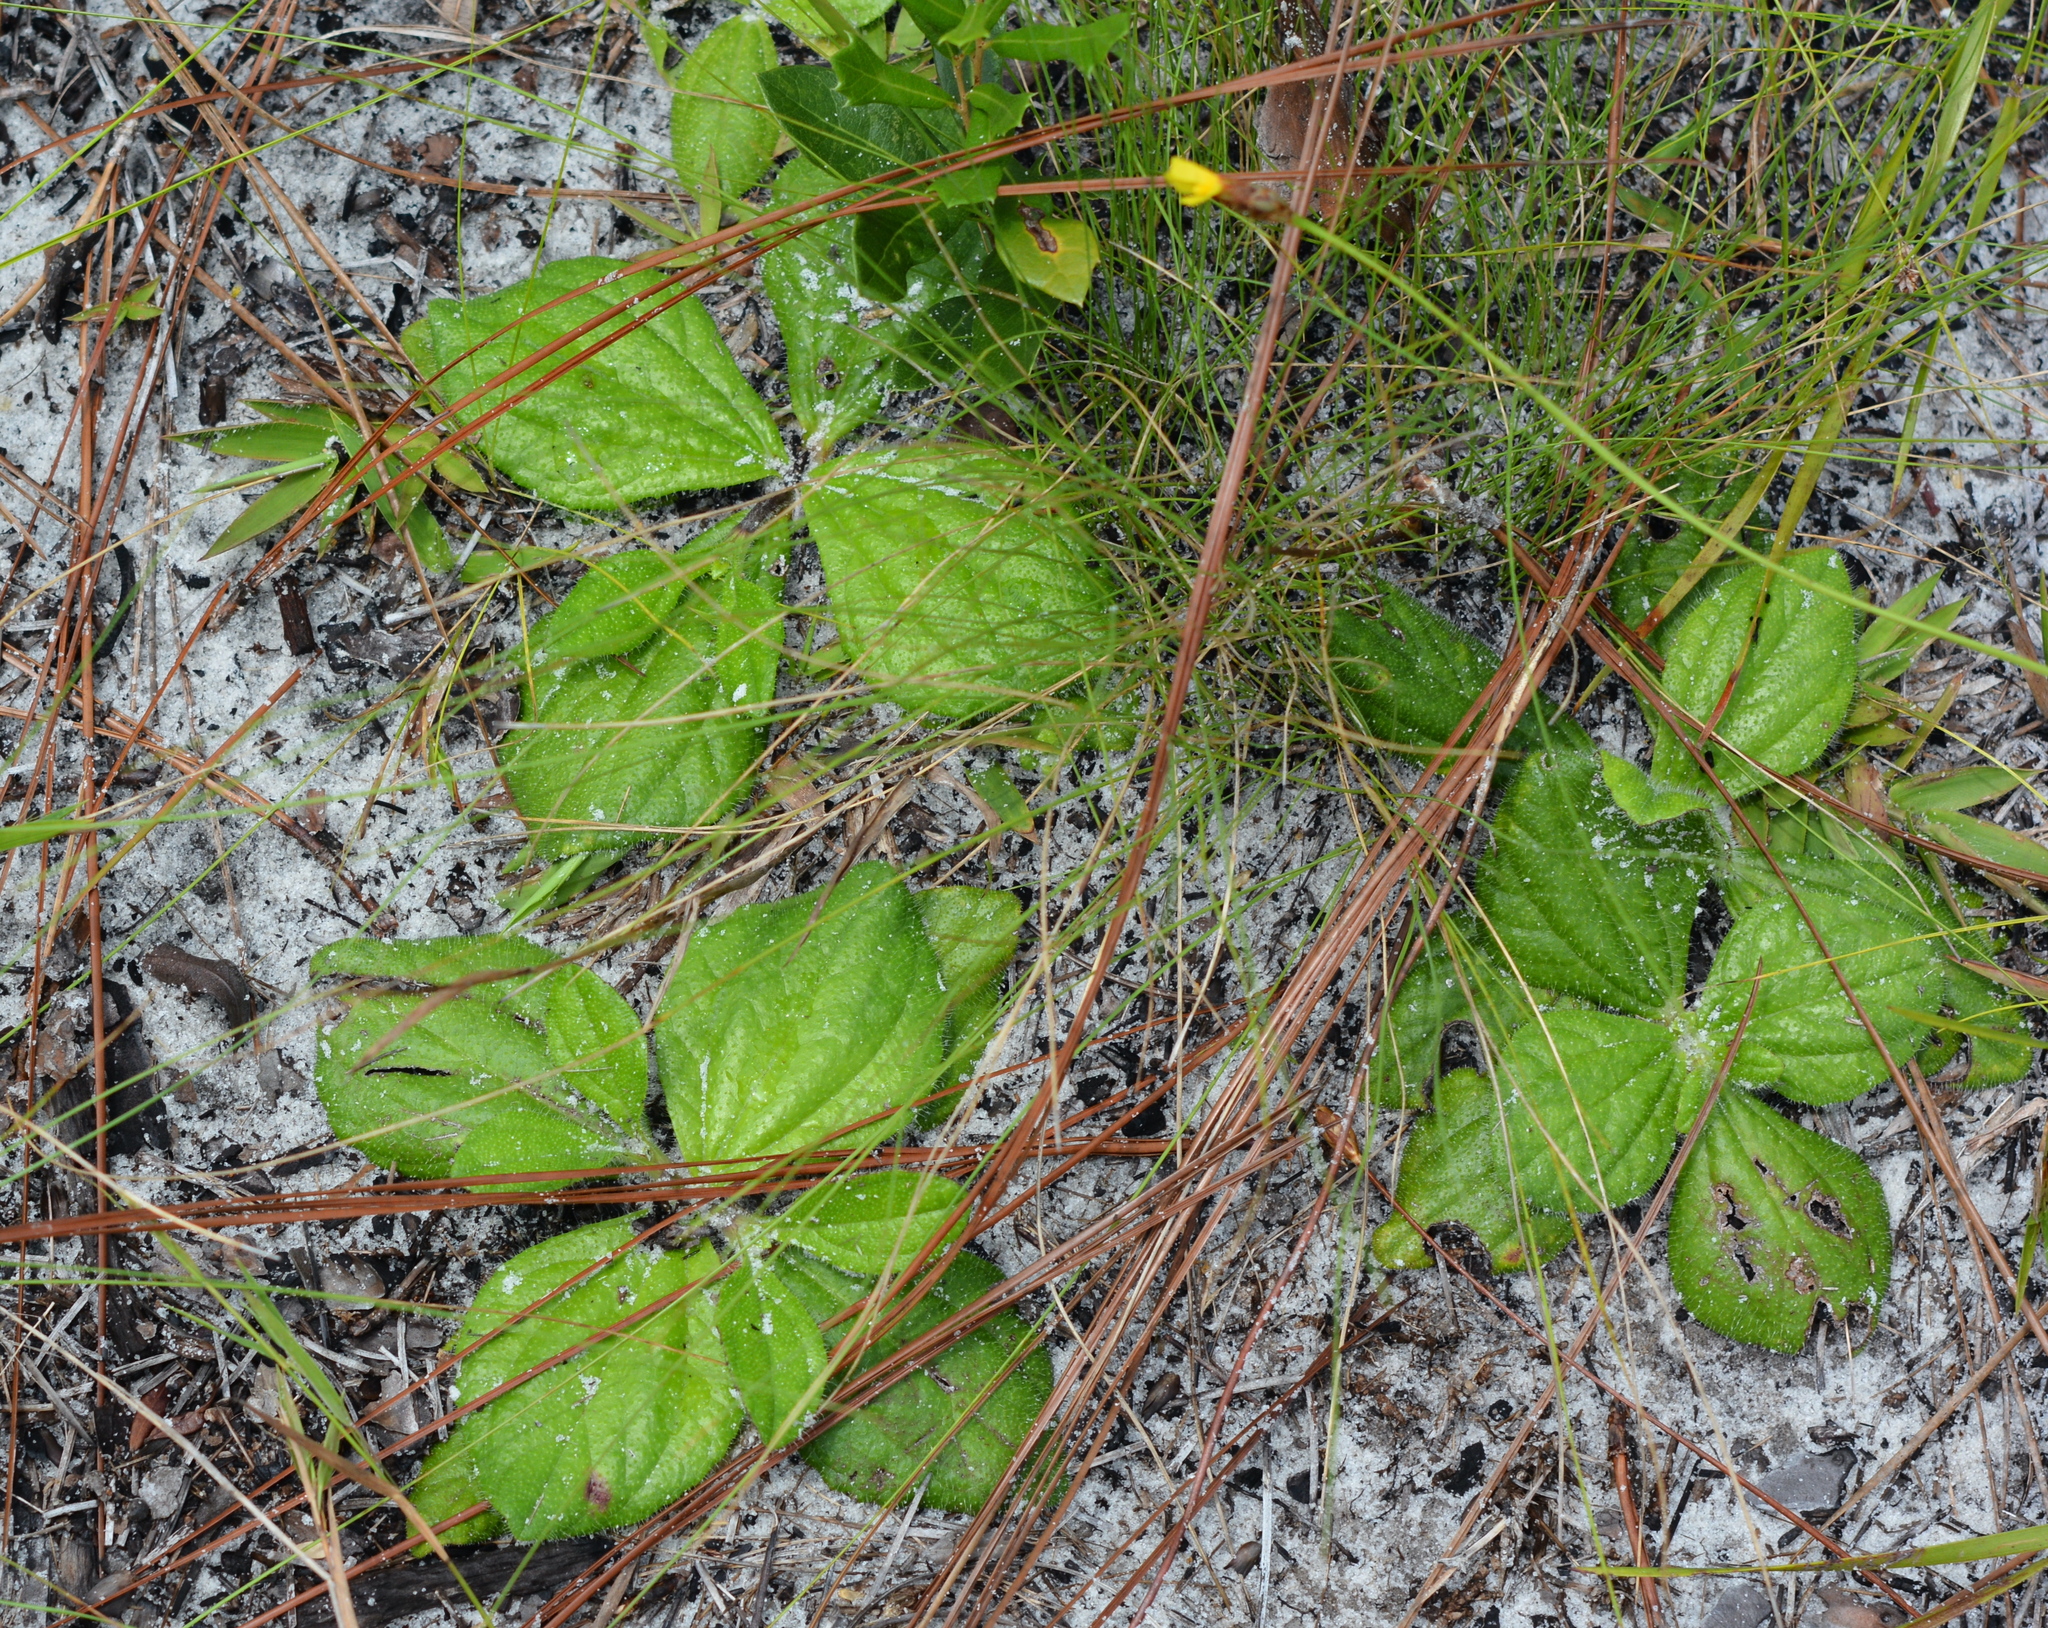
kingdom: Plantae
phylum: Tracheophyta
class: Magnoliopsida
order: Asterales
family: Asteraceae
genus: Helianthus
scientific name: Helianthus radula
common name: Pineland sunflower
